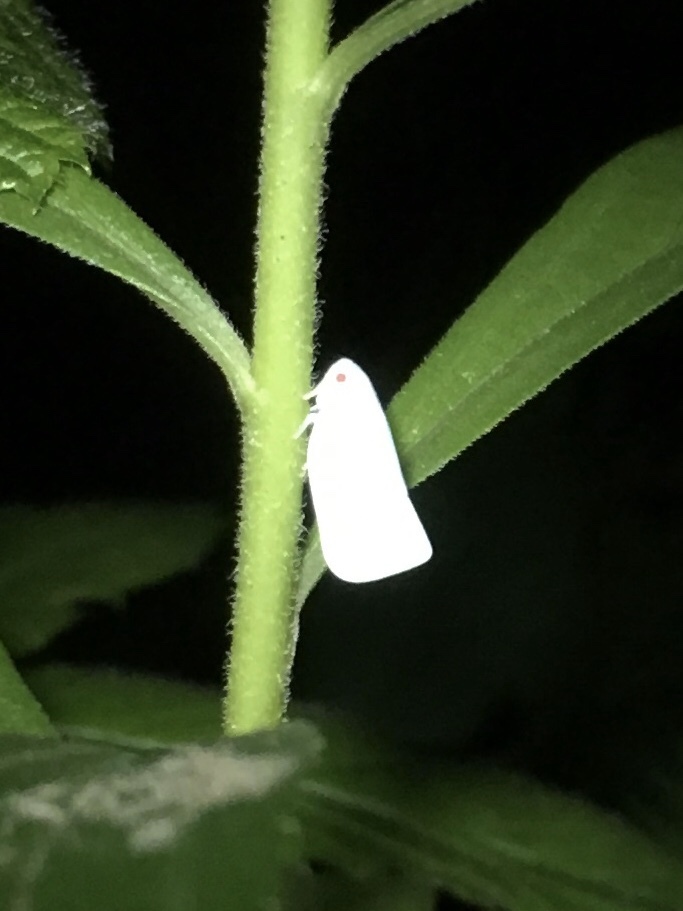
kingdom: Animalia
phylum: Arthropoda
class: Insecta
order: Hemiptera
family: Flatidae
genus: Flatormenis
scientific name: Flatormenis proxima
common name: Northern flatid planthopper
